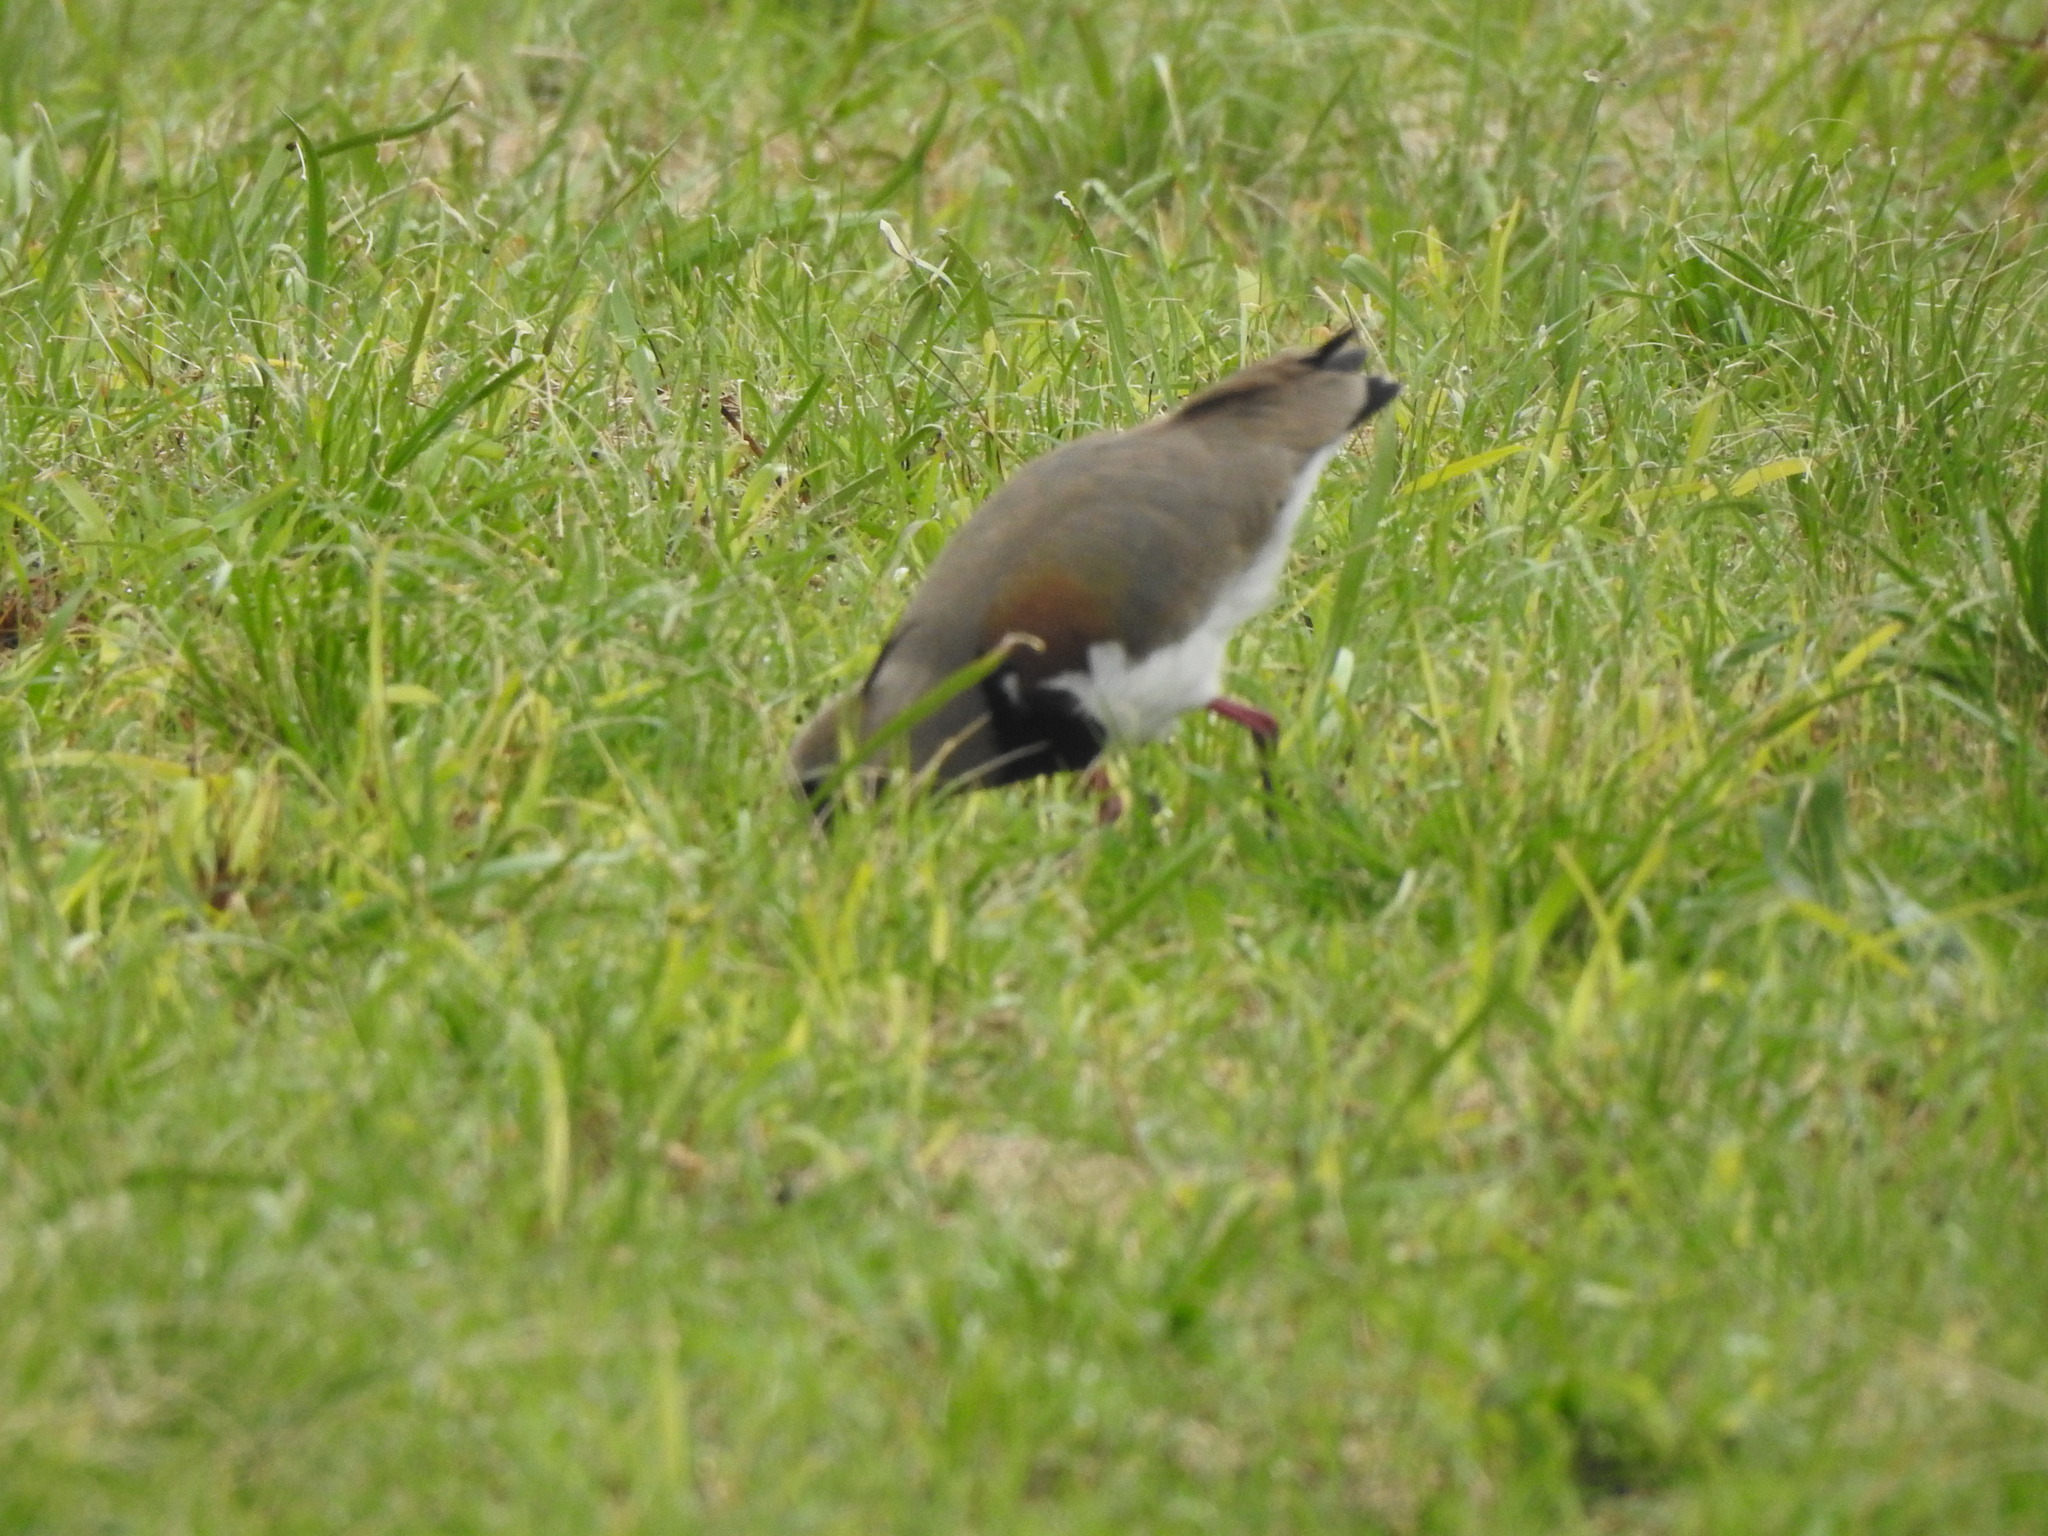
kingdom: Animalia
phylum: Chordata
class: Aves
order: Charadriiformes
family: Charadriidae
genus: Vanellus
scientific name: Vanellus chilensis
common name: Southern lapwing
